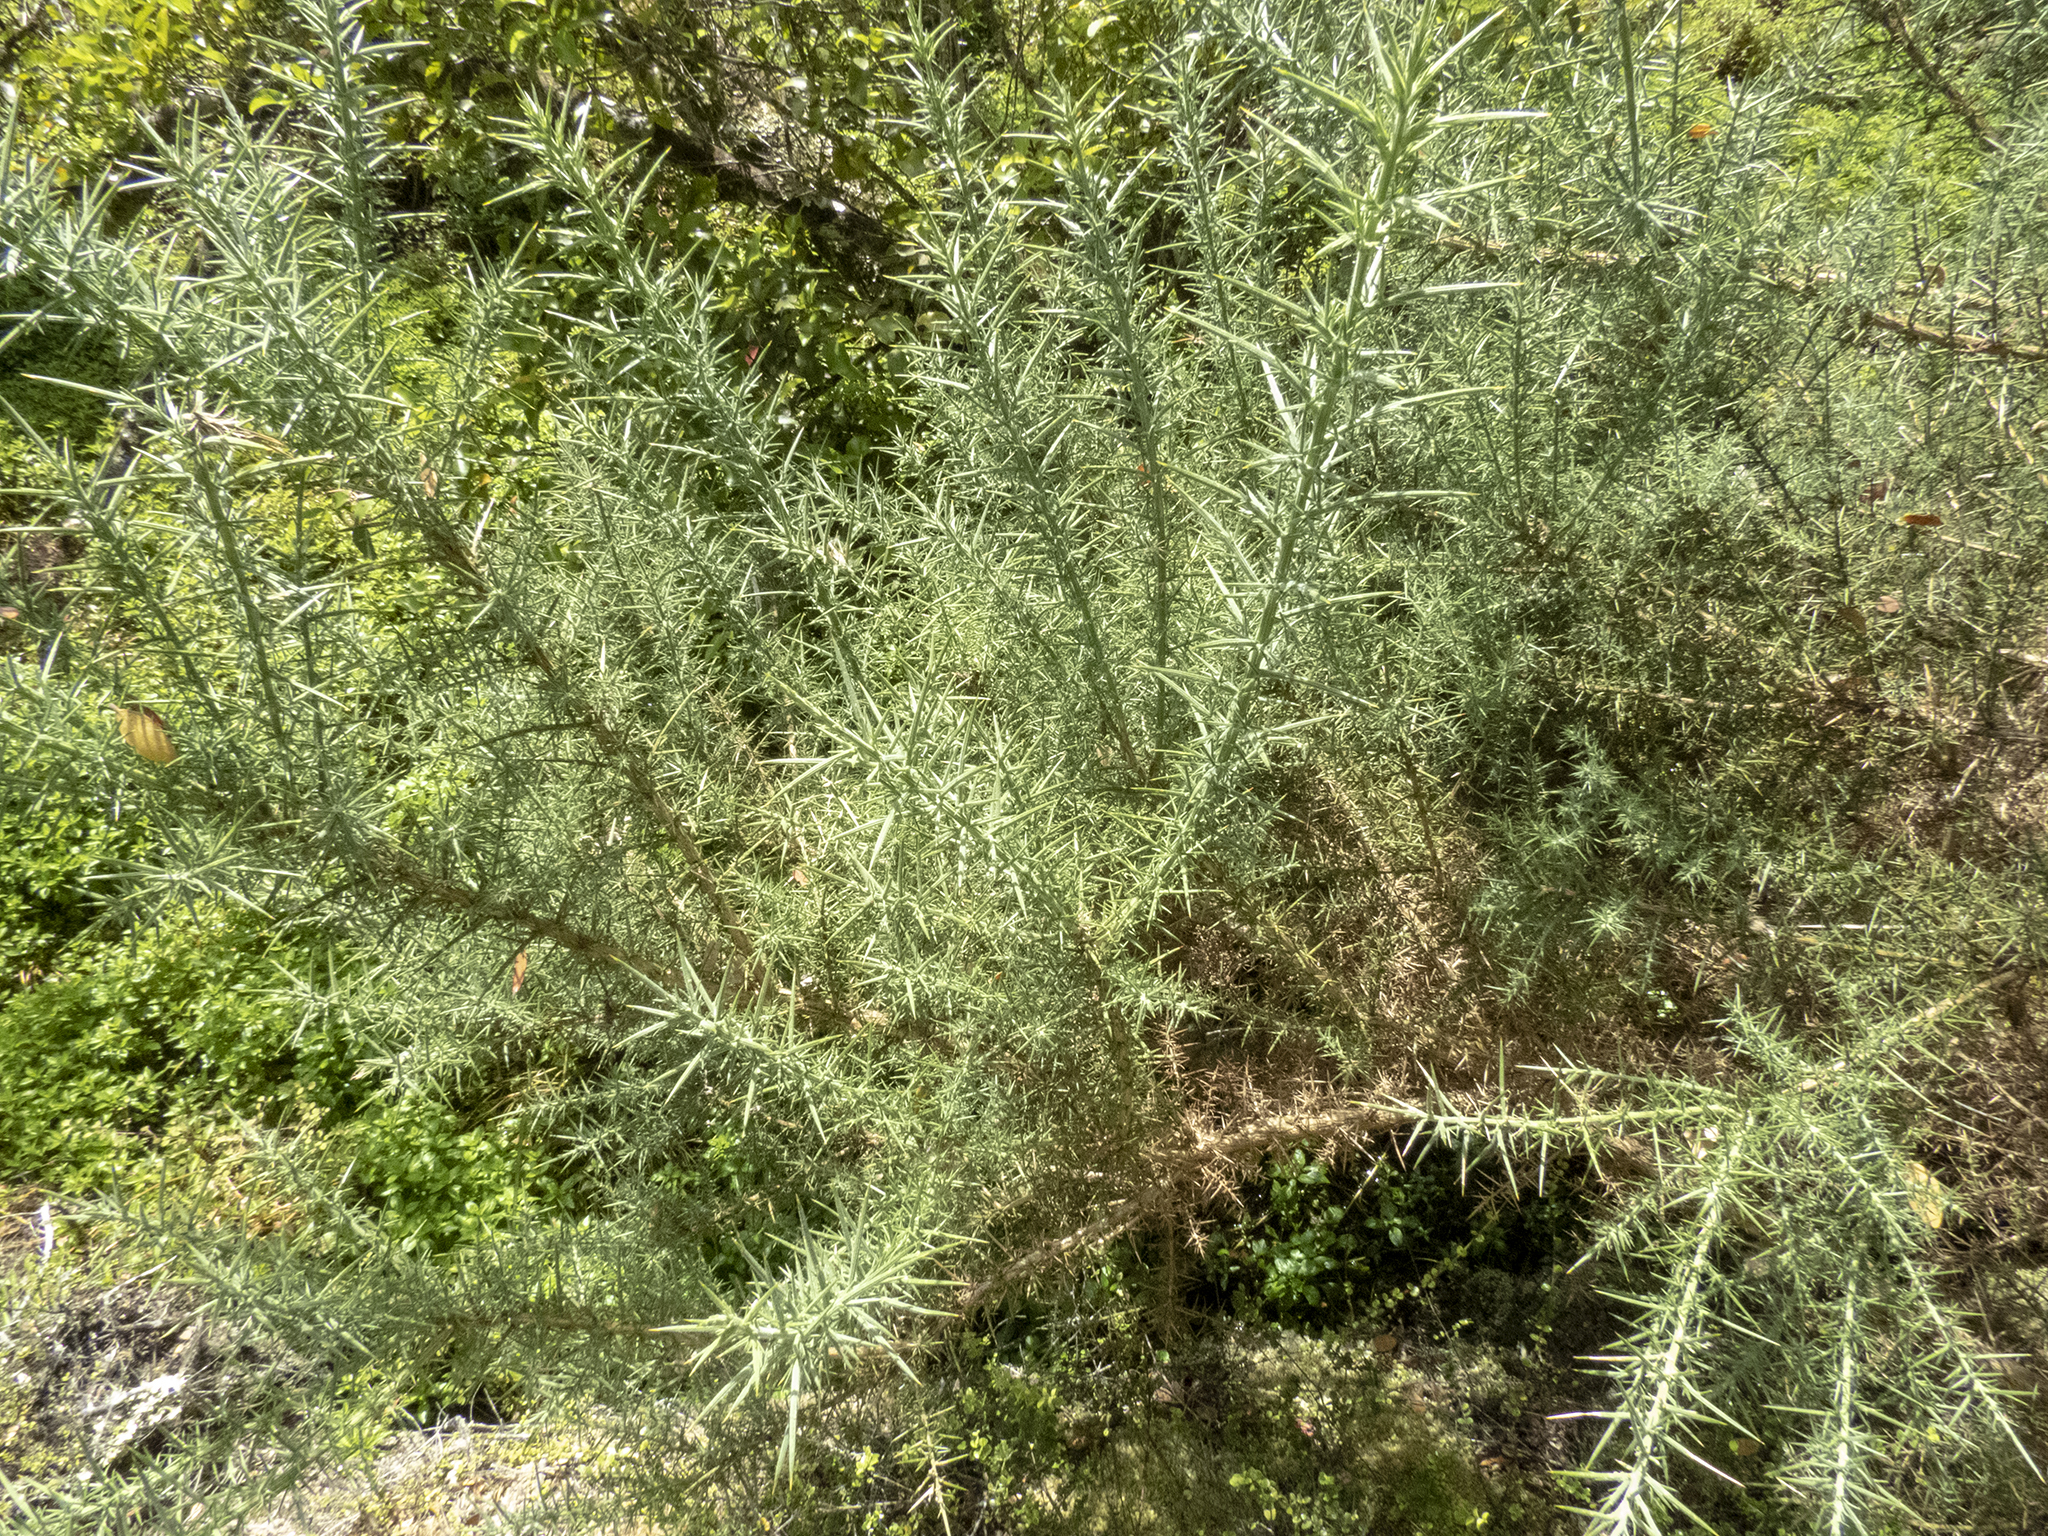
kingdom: Plantae
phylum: Tracheophyta
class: Magnoliopsida
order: Fabales
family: Fabaceae
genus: Ulex
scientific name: Ulex europaeus
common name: Common gorse
